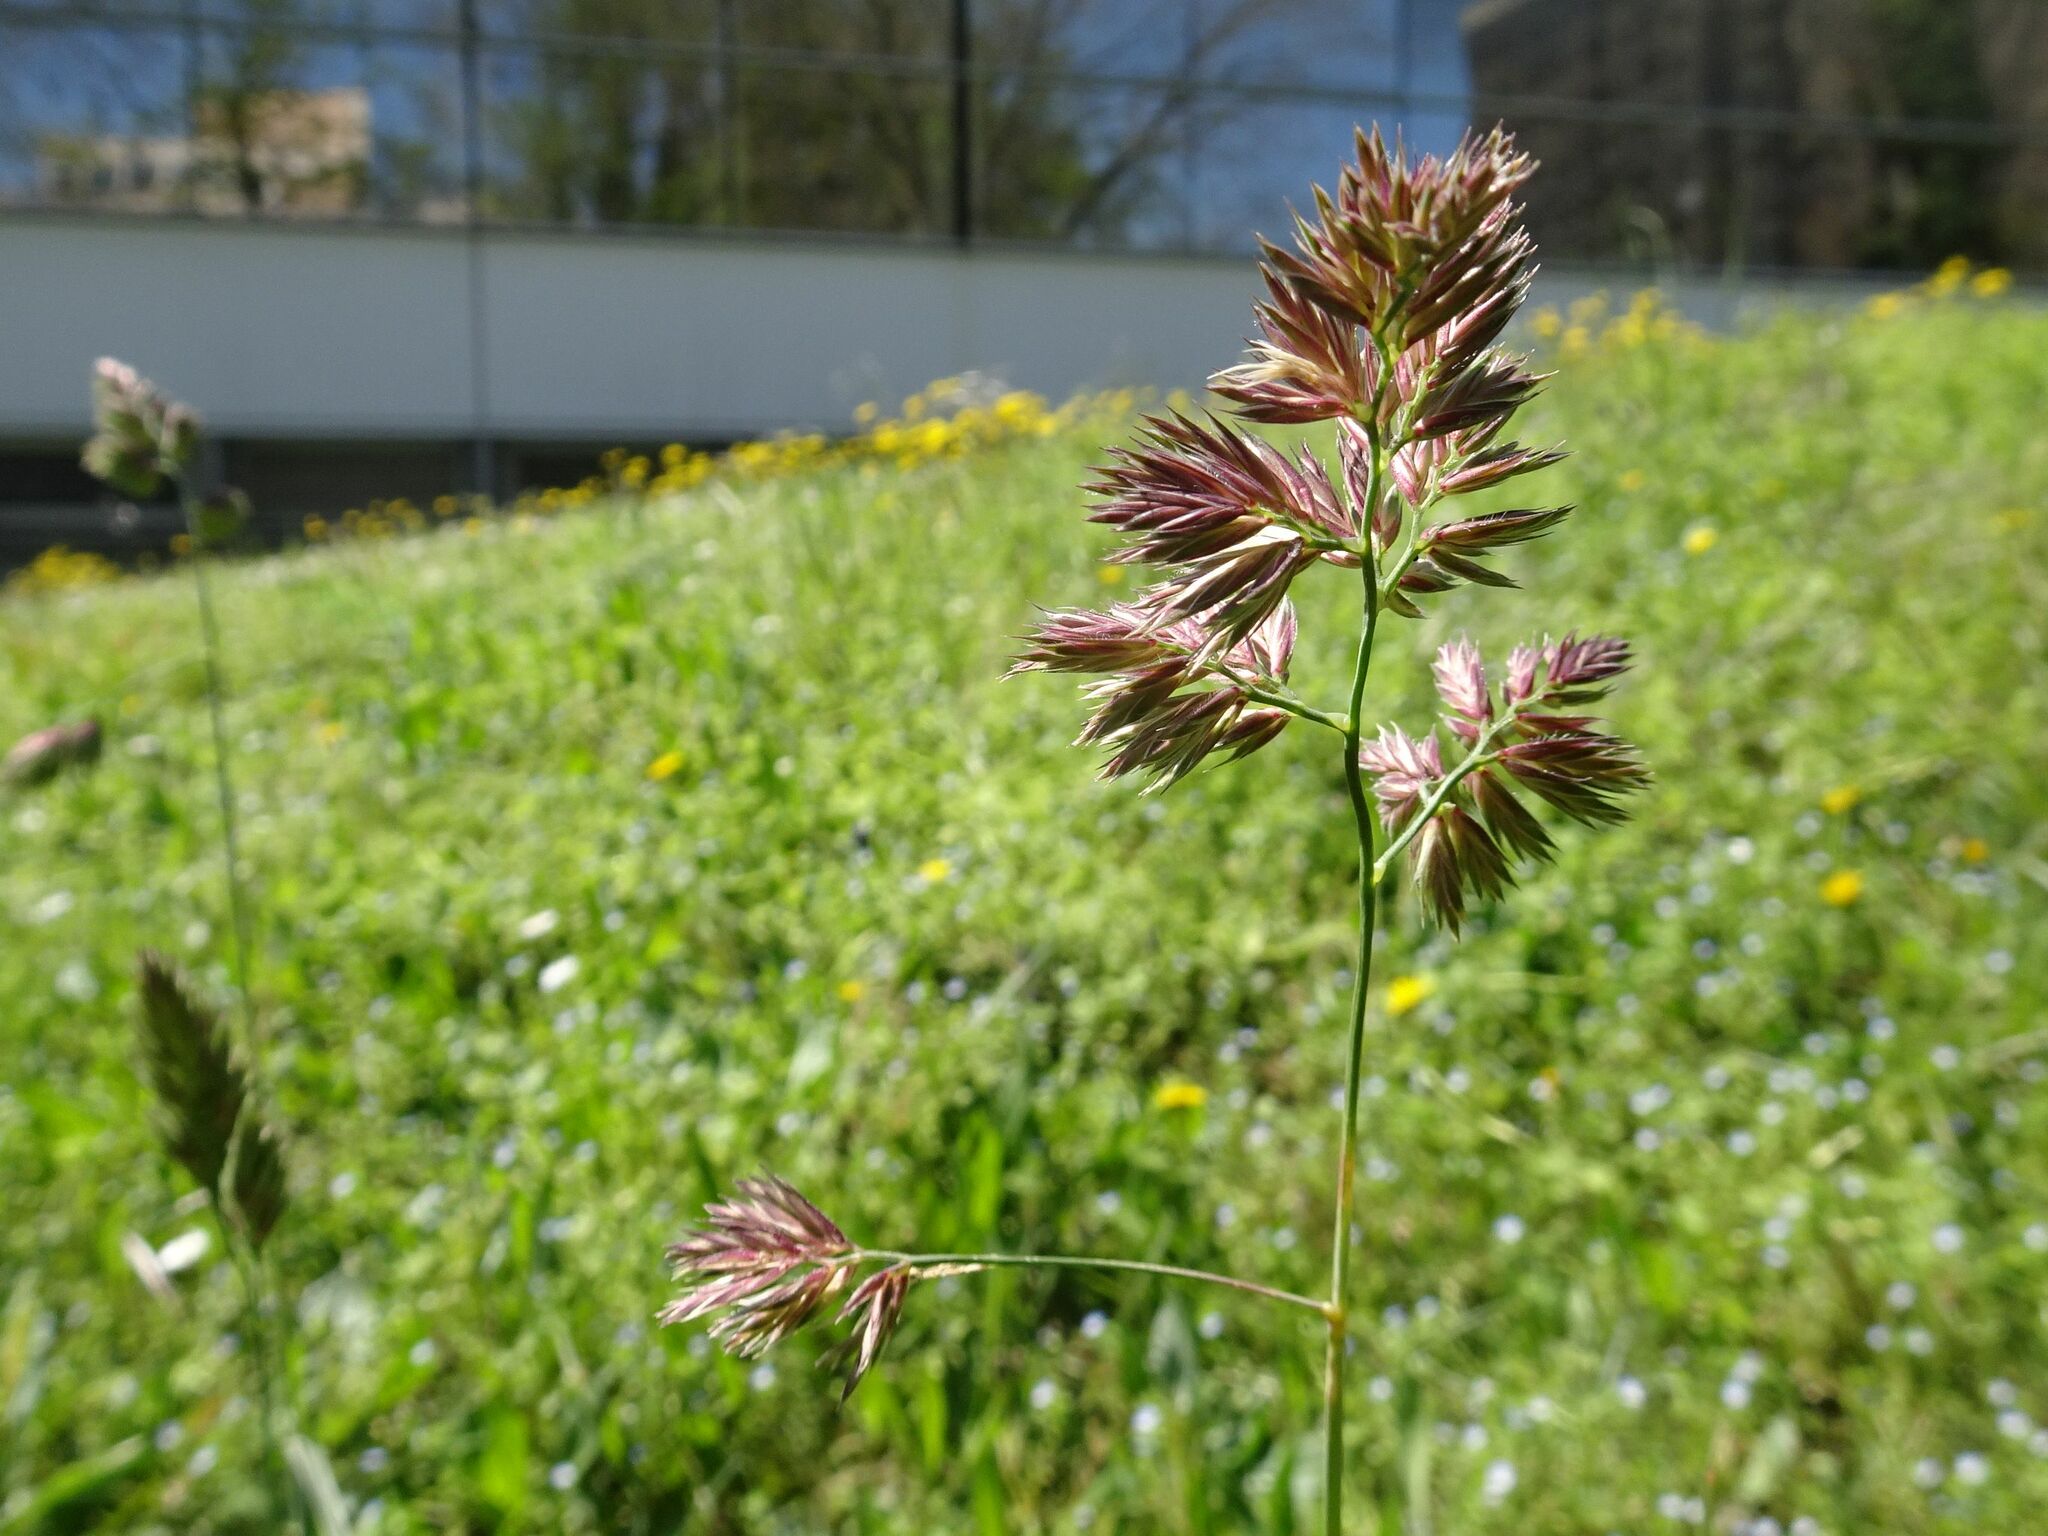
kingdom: Plantae
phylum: Tracheophyta
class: Liliopsida
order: Poales
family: Poaceae
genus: Dactylis
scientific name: Dactylis glomerata
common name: Orchardgrass
